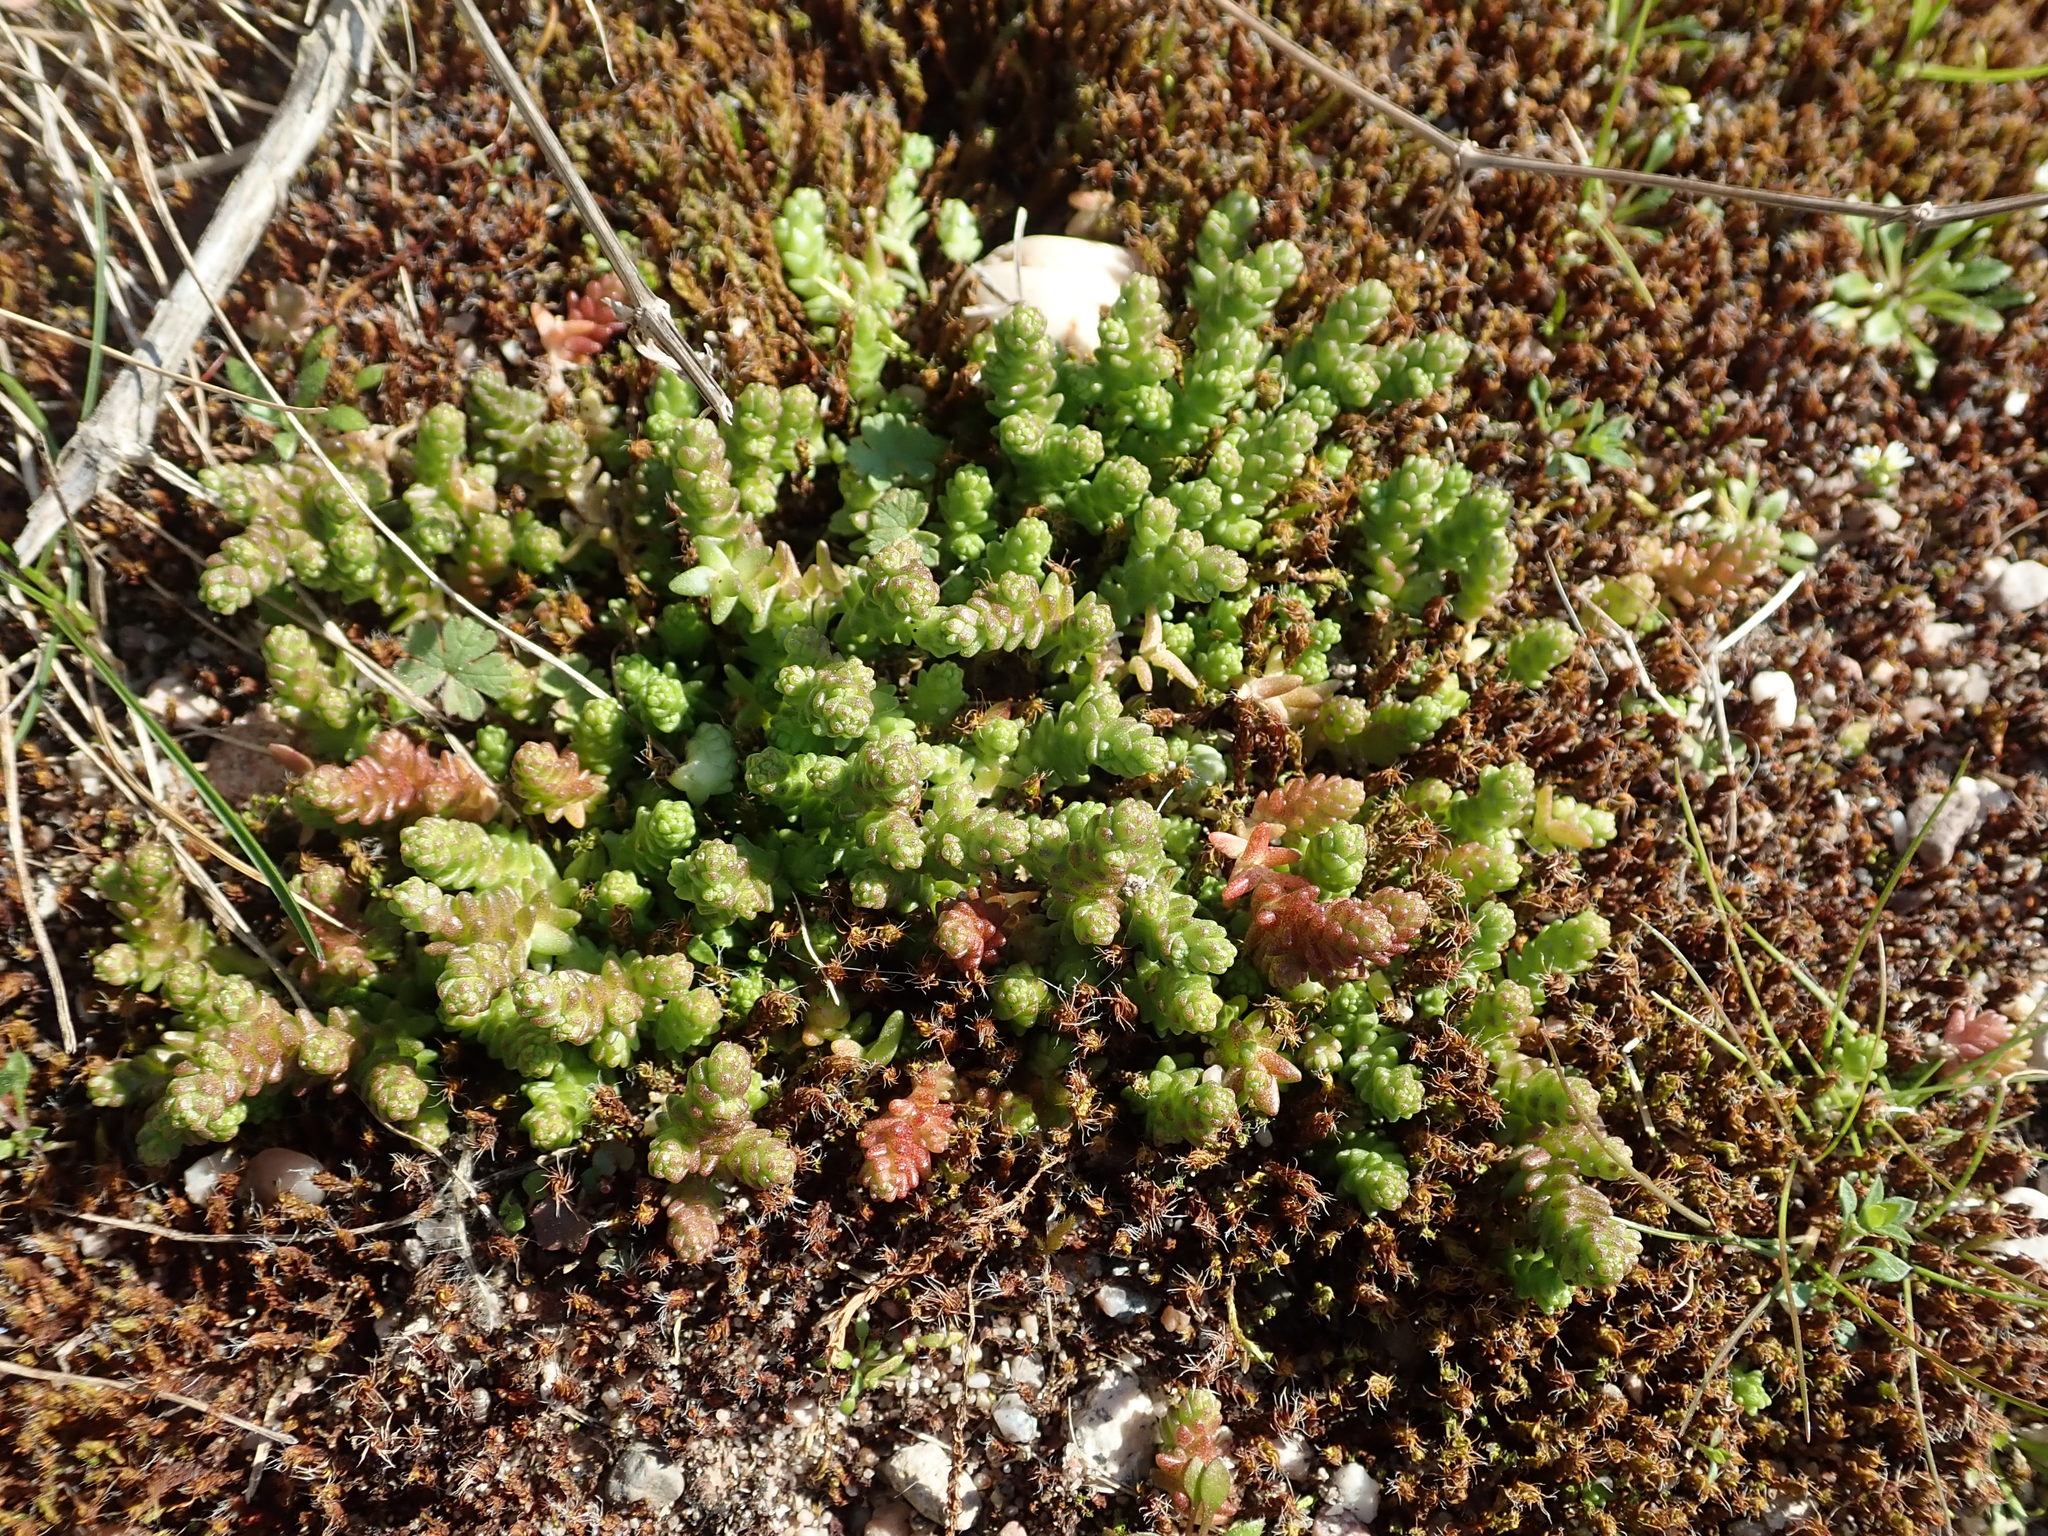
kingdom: Plantae
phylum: Tracheophyta
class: Magnoliopsida
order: Saxifragales
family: Crassulaceae
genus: Sedum
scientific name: Sedum acre
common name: Biting stonecrop
